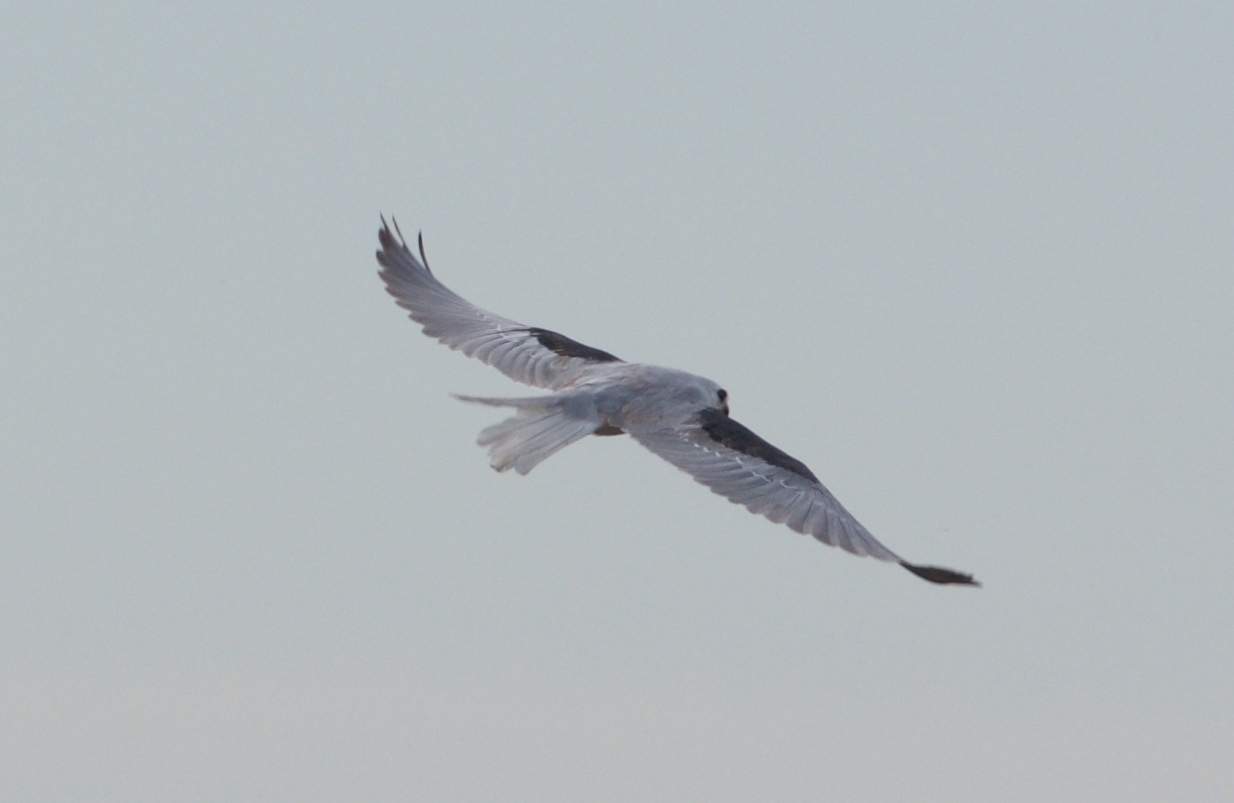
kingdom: Animalia
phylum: Chordata
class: Aves
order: Accipitriformes
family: Accipitridae
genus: Elanus
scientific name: Elanus leucurus
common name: White-tailed kite
